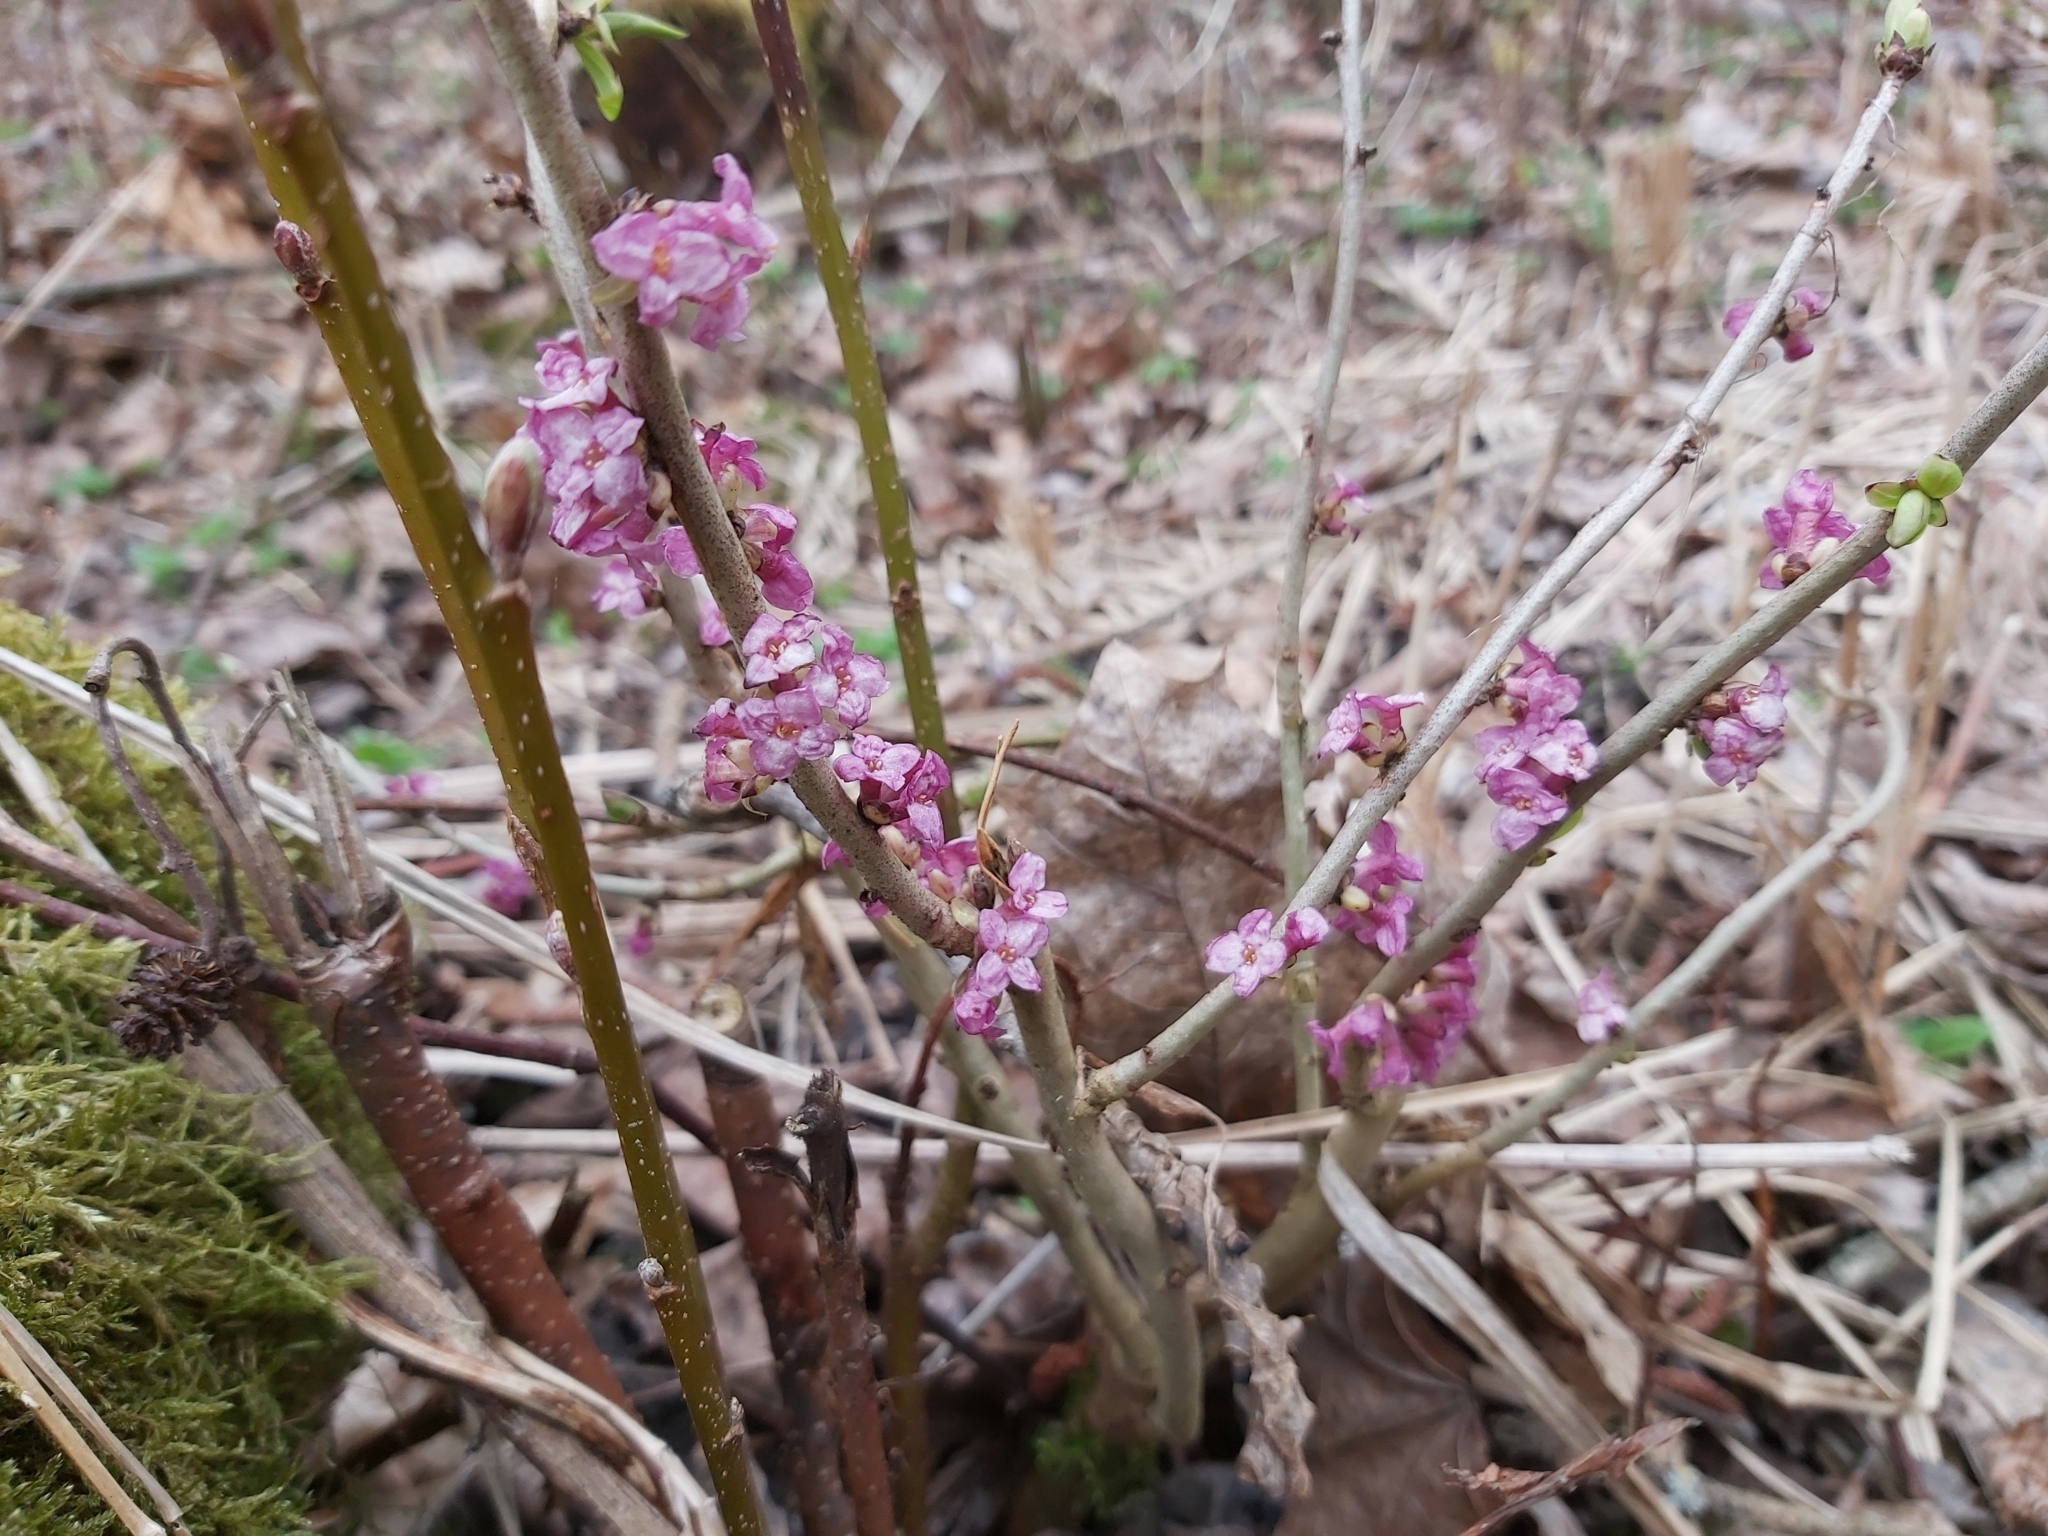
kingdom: Plantae
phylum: Tracheophyta
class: Magnoliopsida
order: Malvales
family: Thymelaeaceae
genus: Daphne
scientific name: Daphne mezereum
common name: Mezereon
